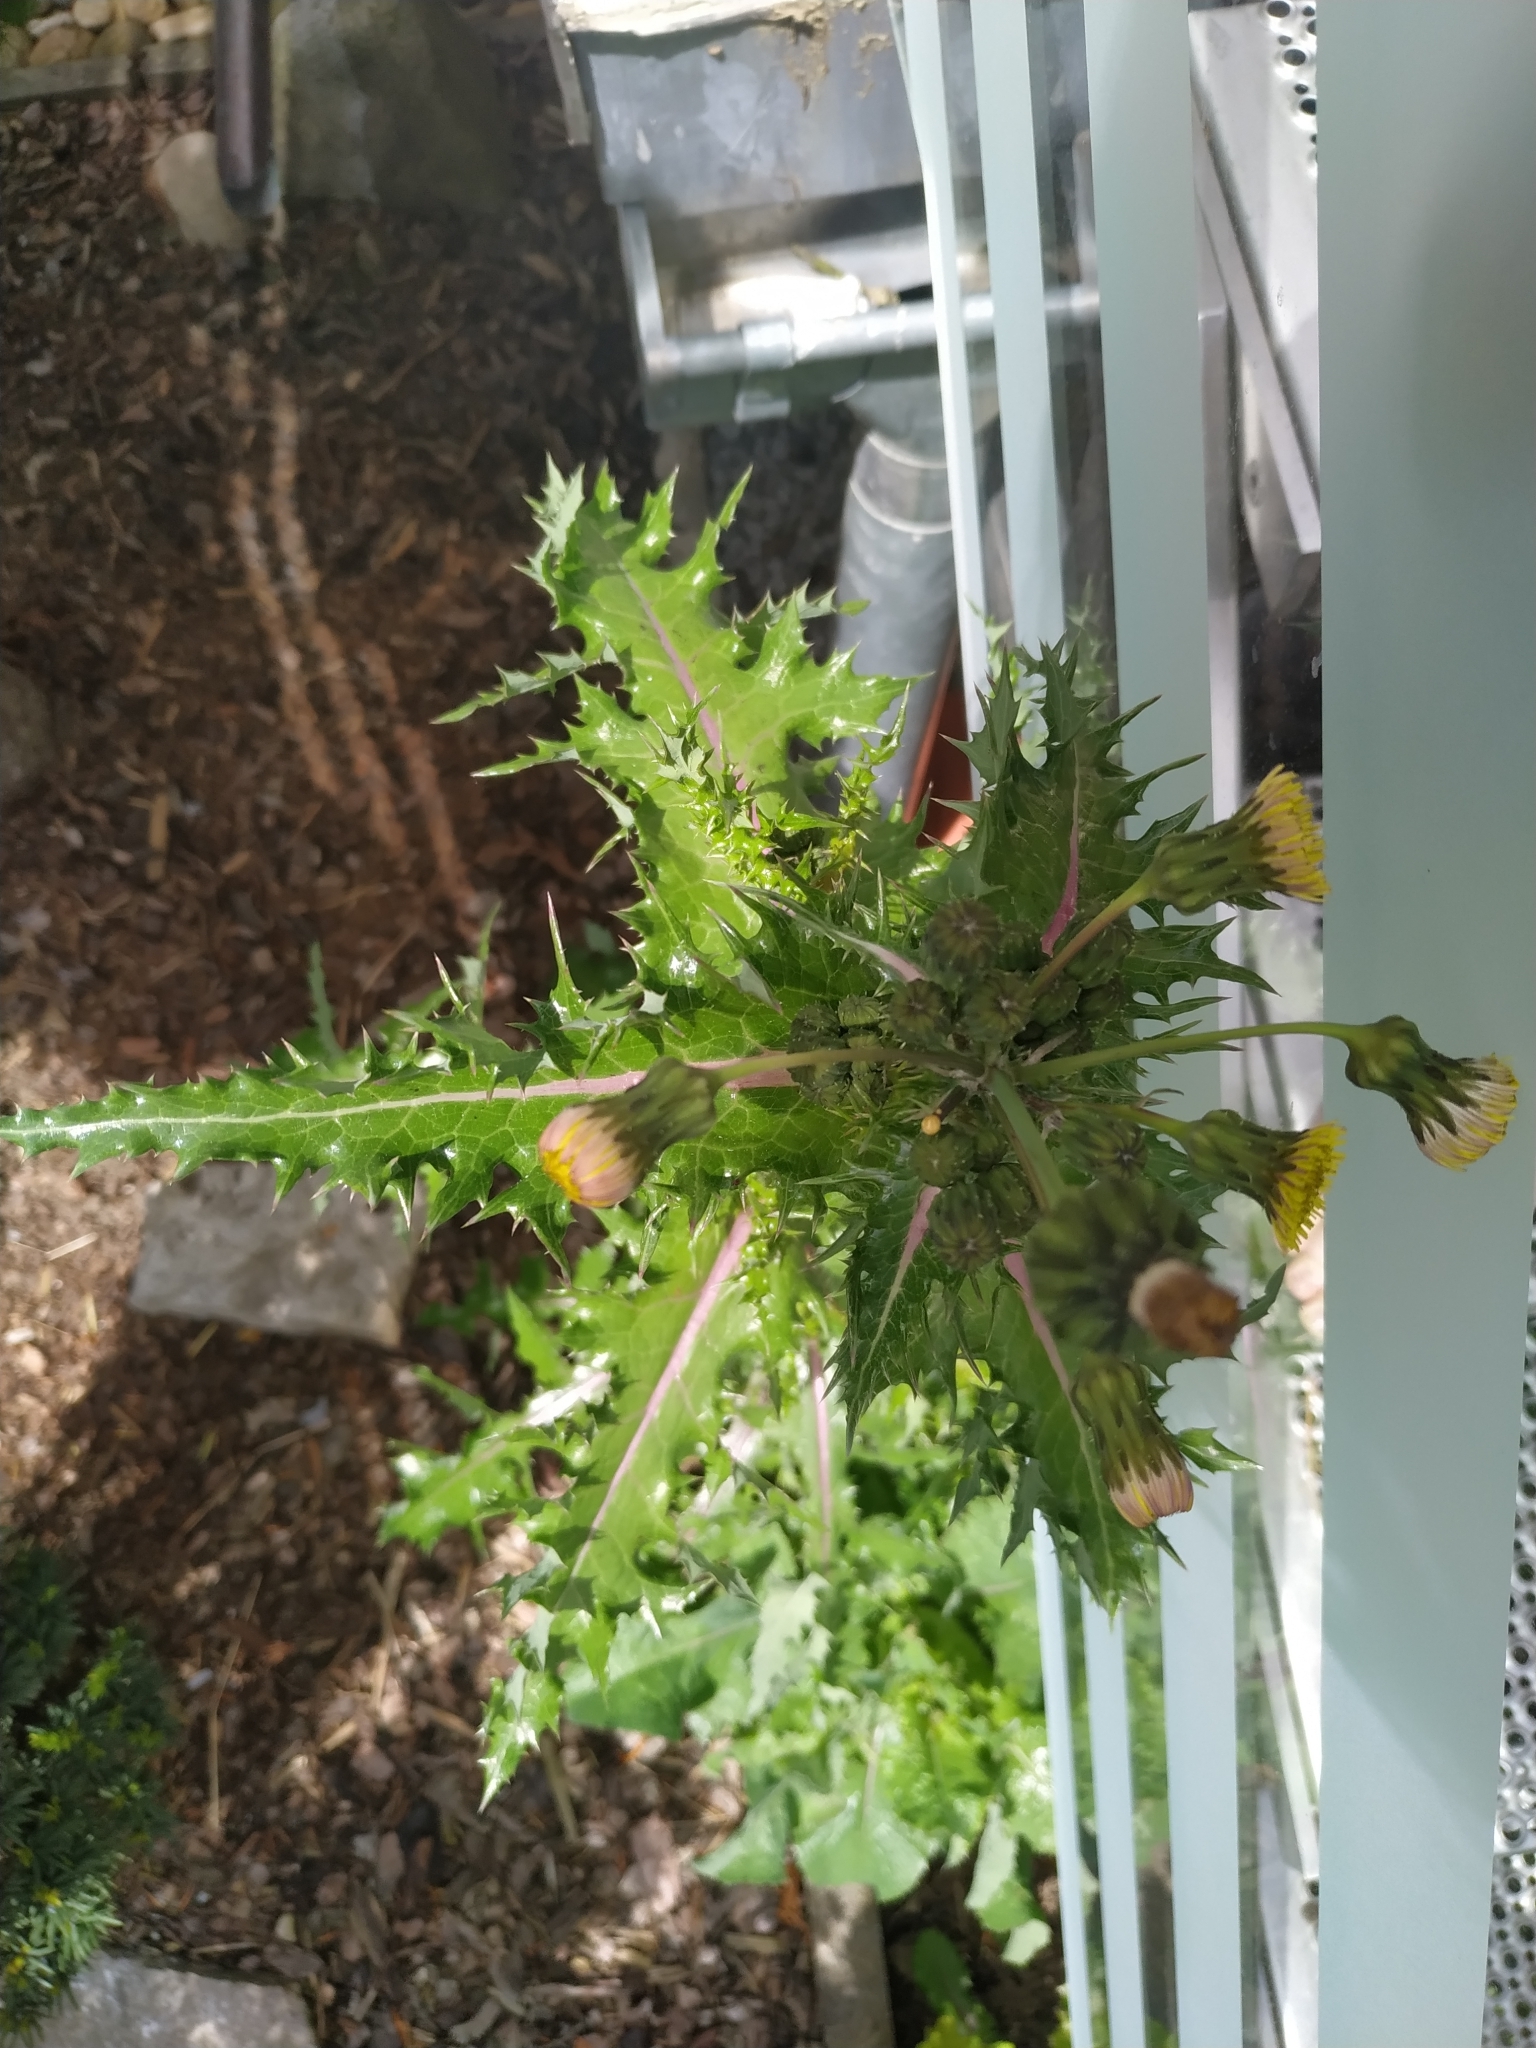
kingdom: Plantae
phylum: Tracheophyta
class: Magnoliopsida
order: Asterales
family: Asteraceae
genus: Sonchus
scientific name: Sonchus asper
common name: Prickly sow-thistle
